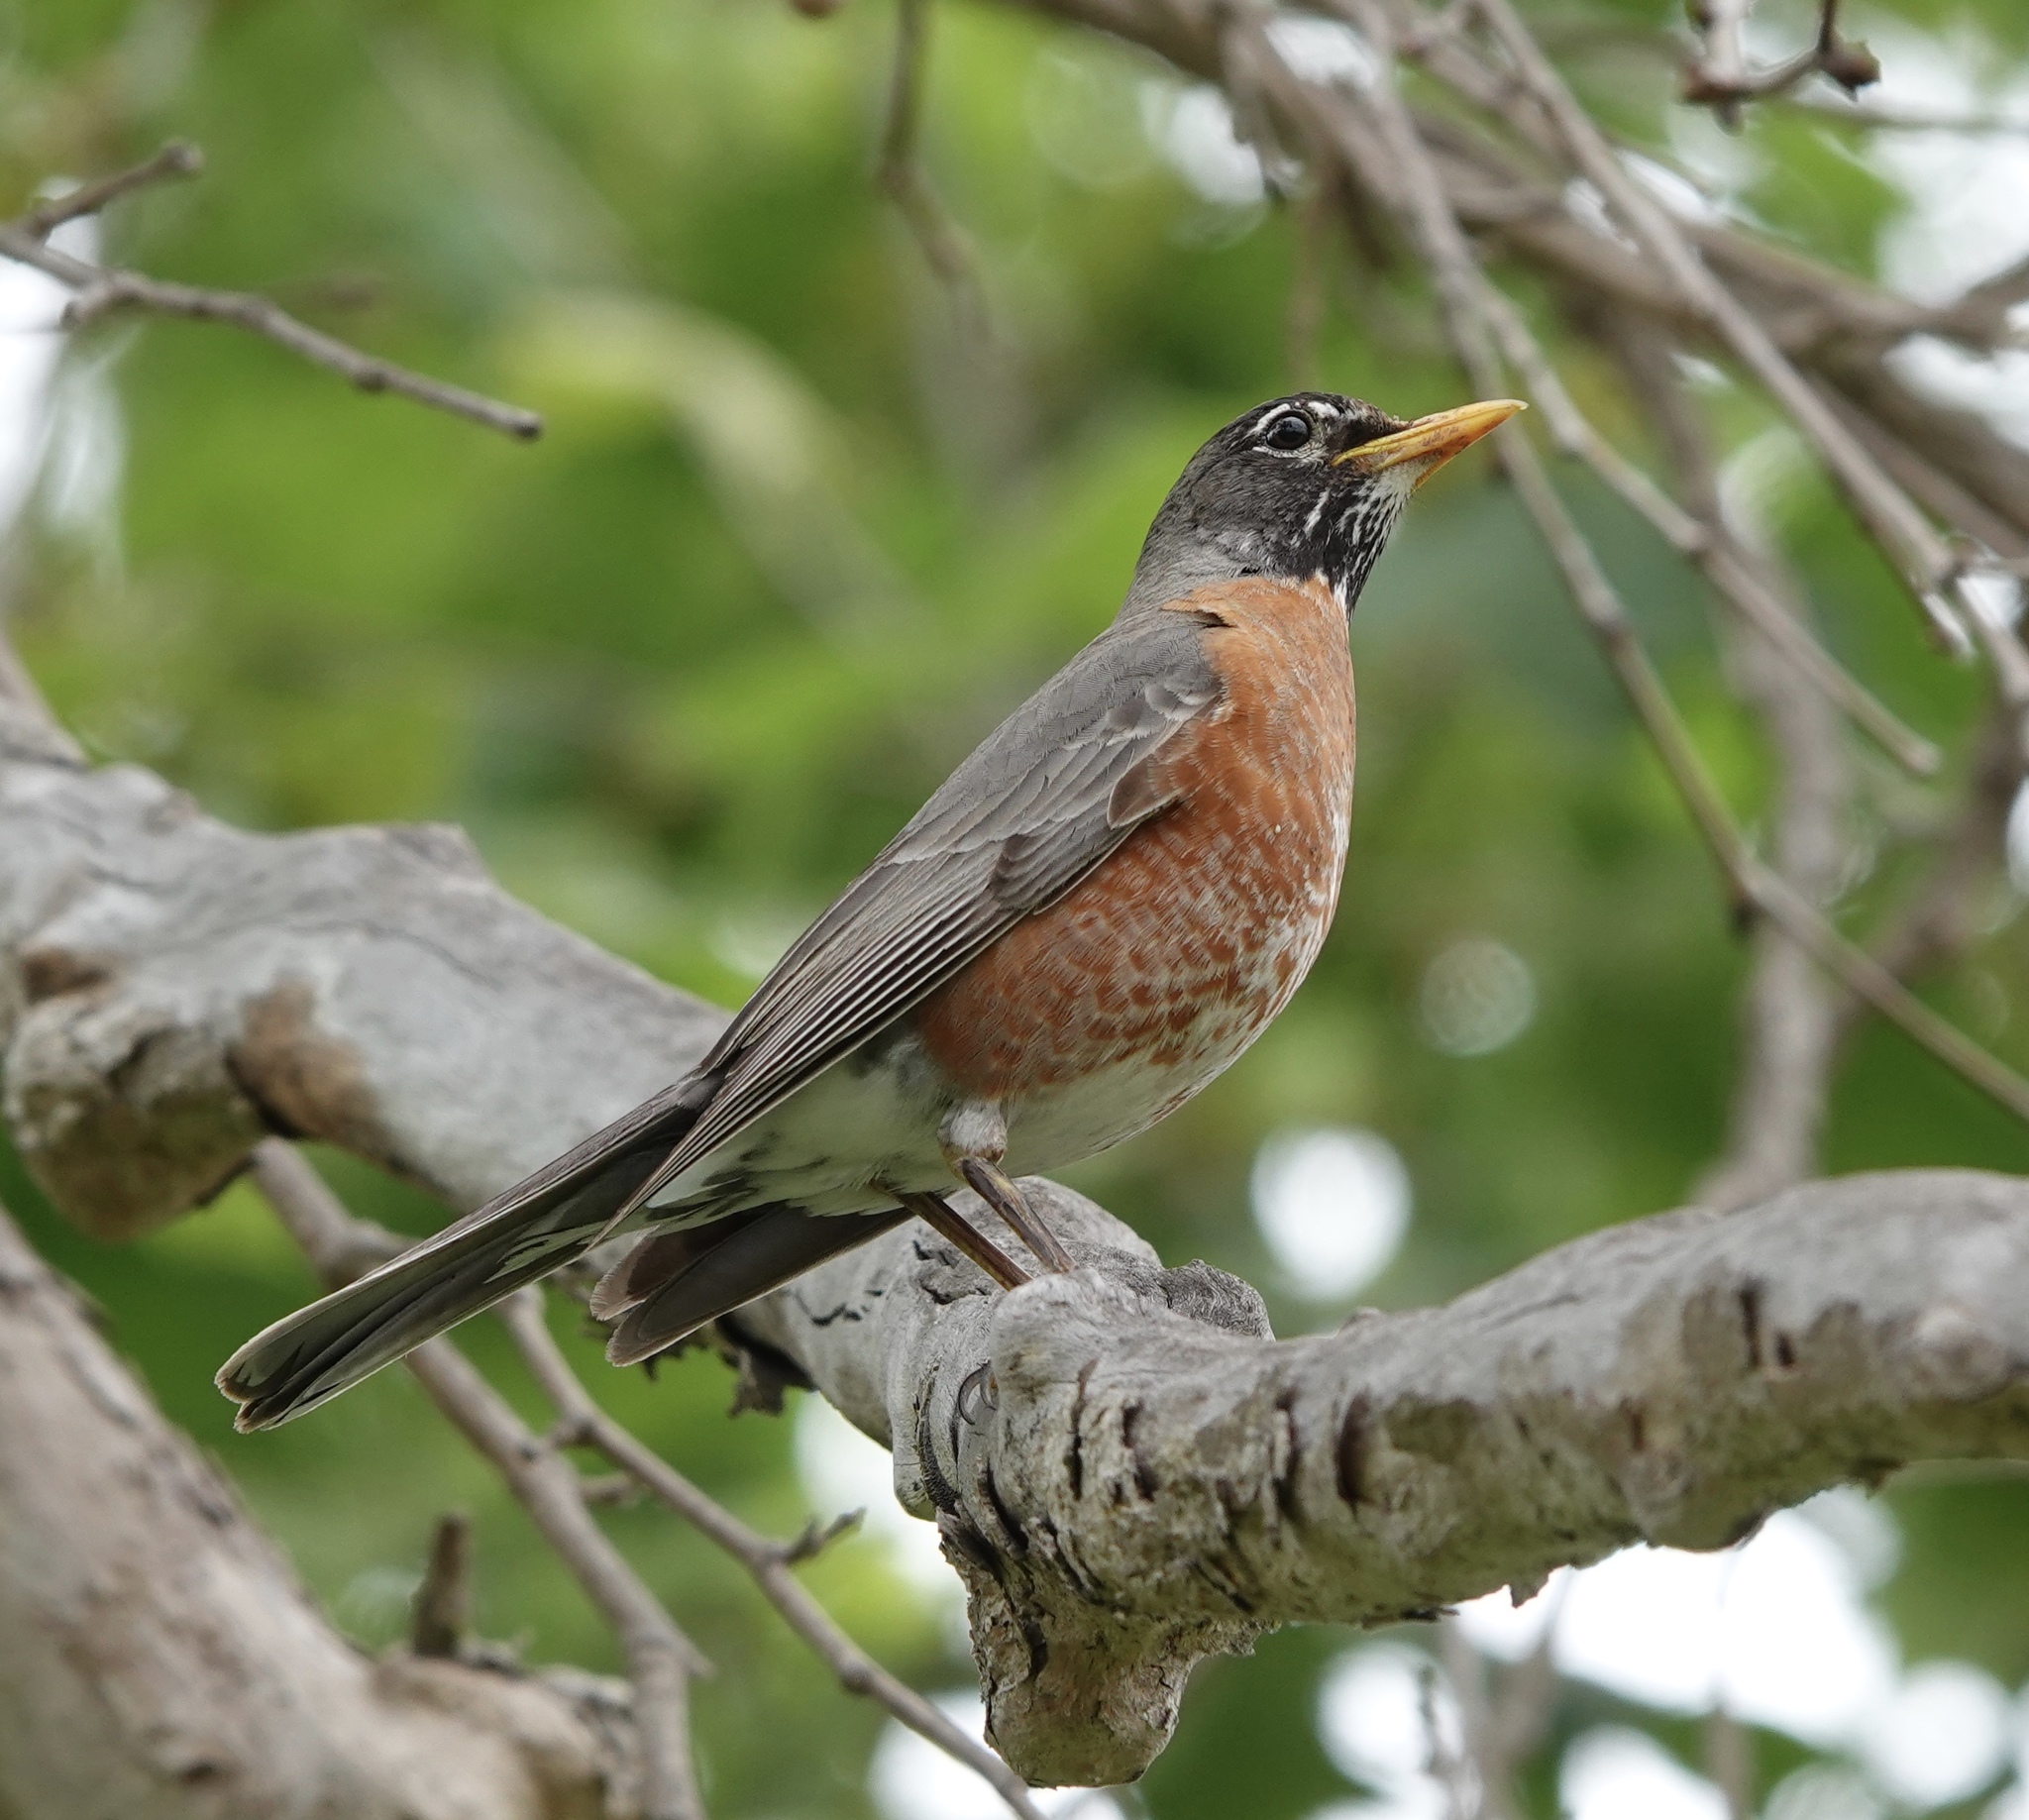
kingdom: Animalia
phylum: Chordata
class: Aves
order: Passeriformes
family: Turdidae
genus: Turdus
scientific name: Turdus migratorius
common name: American robin
